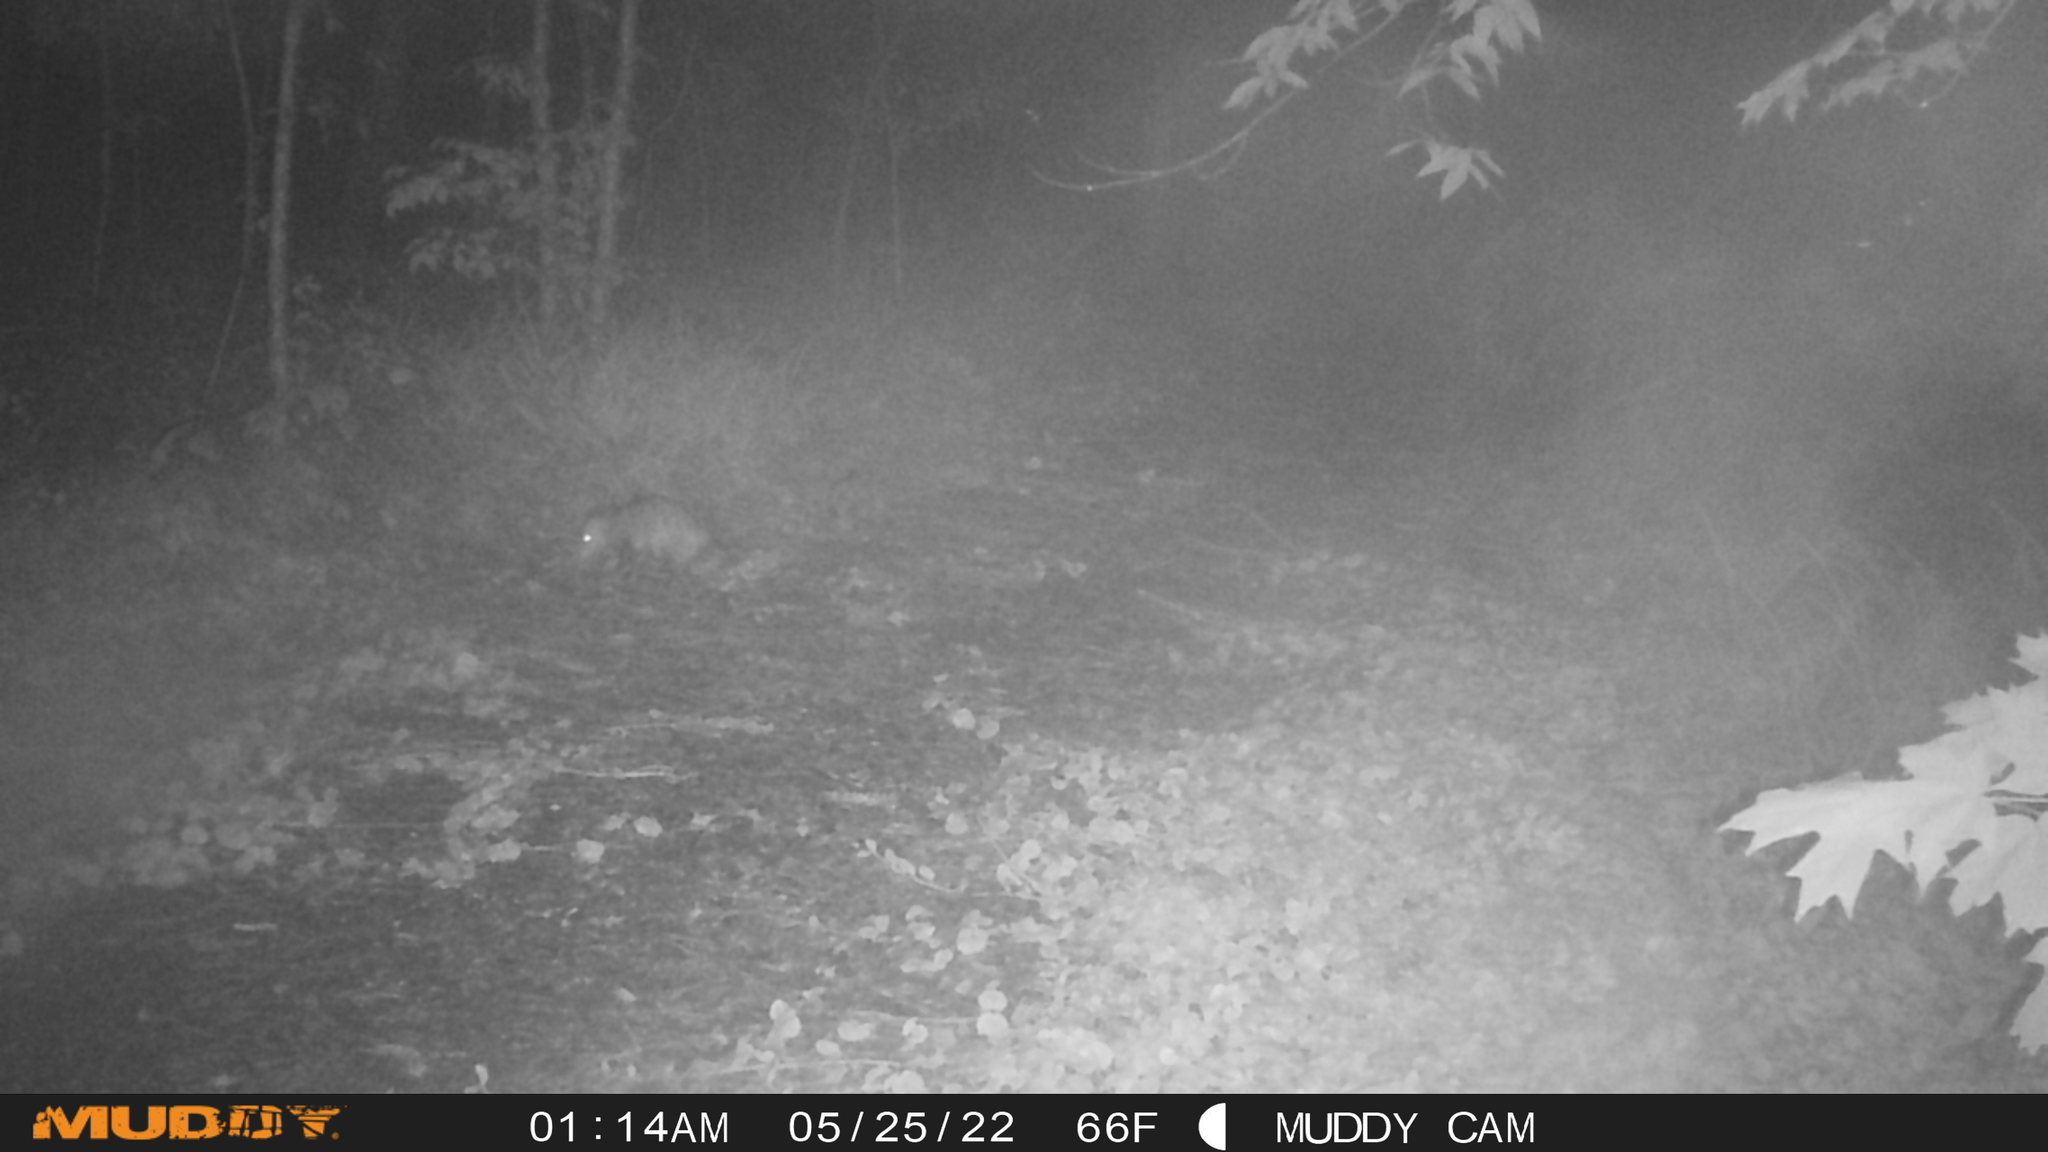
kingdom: Animalia
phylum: Chordata
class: Mammalia
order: Didelphimorphia
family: Didelphidae
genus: Didelphis
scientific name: Didelphis virginiana
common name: Virginia opossum
